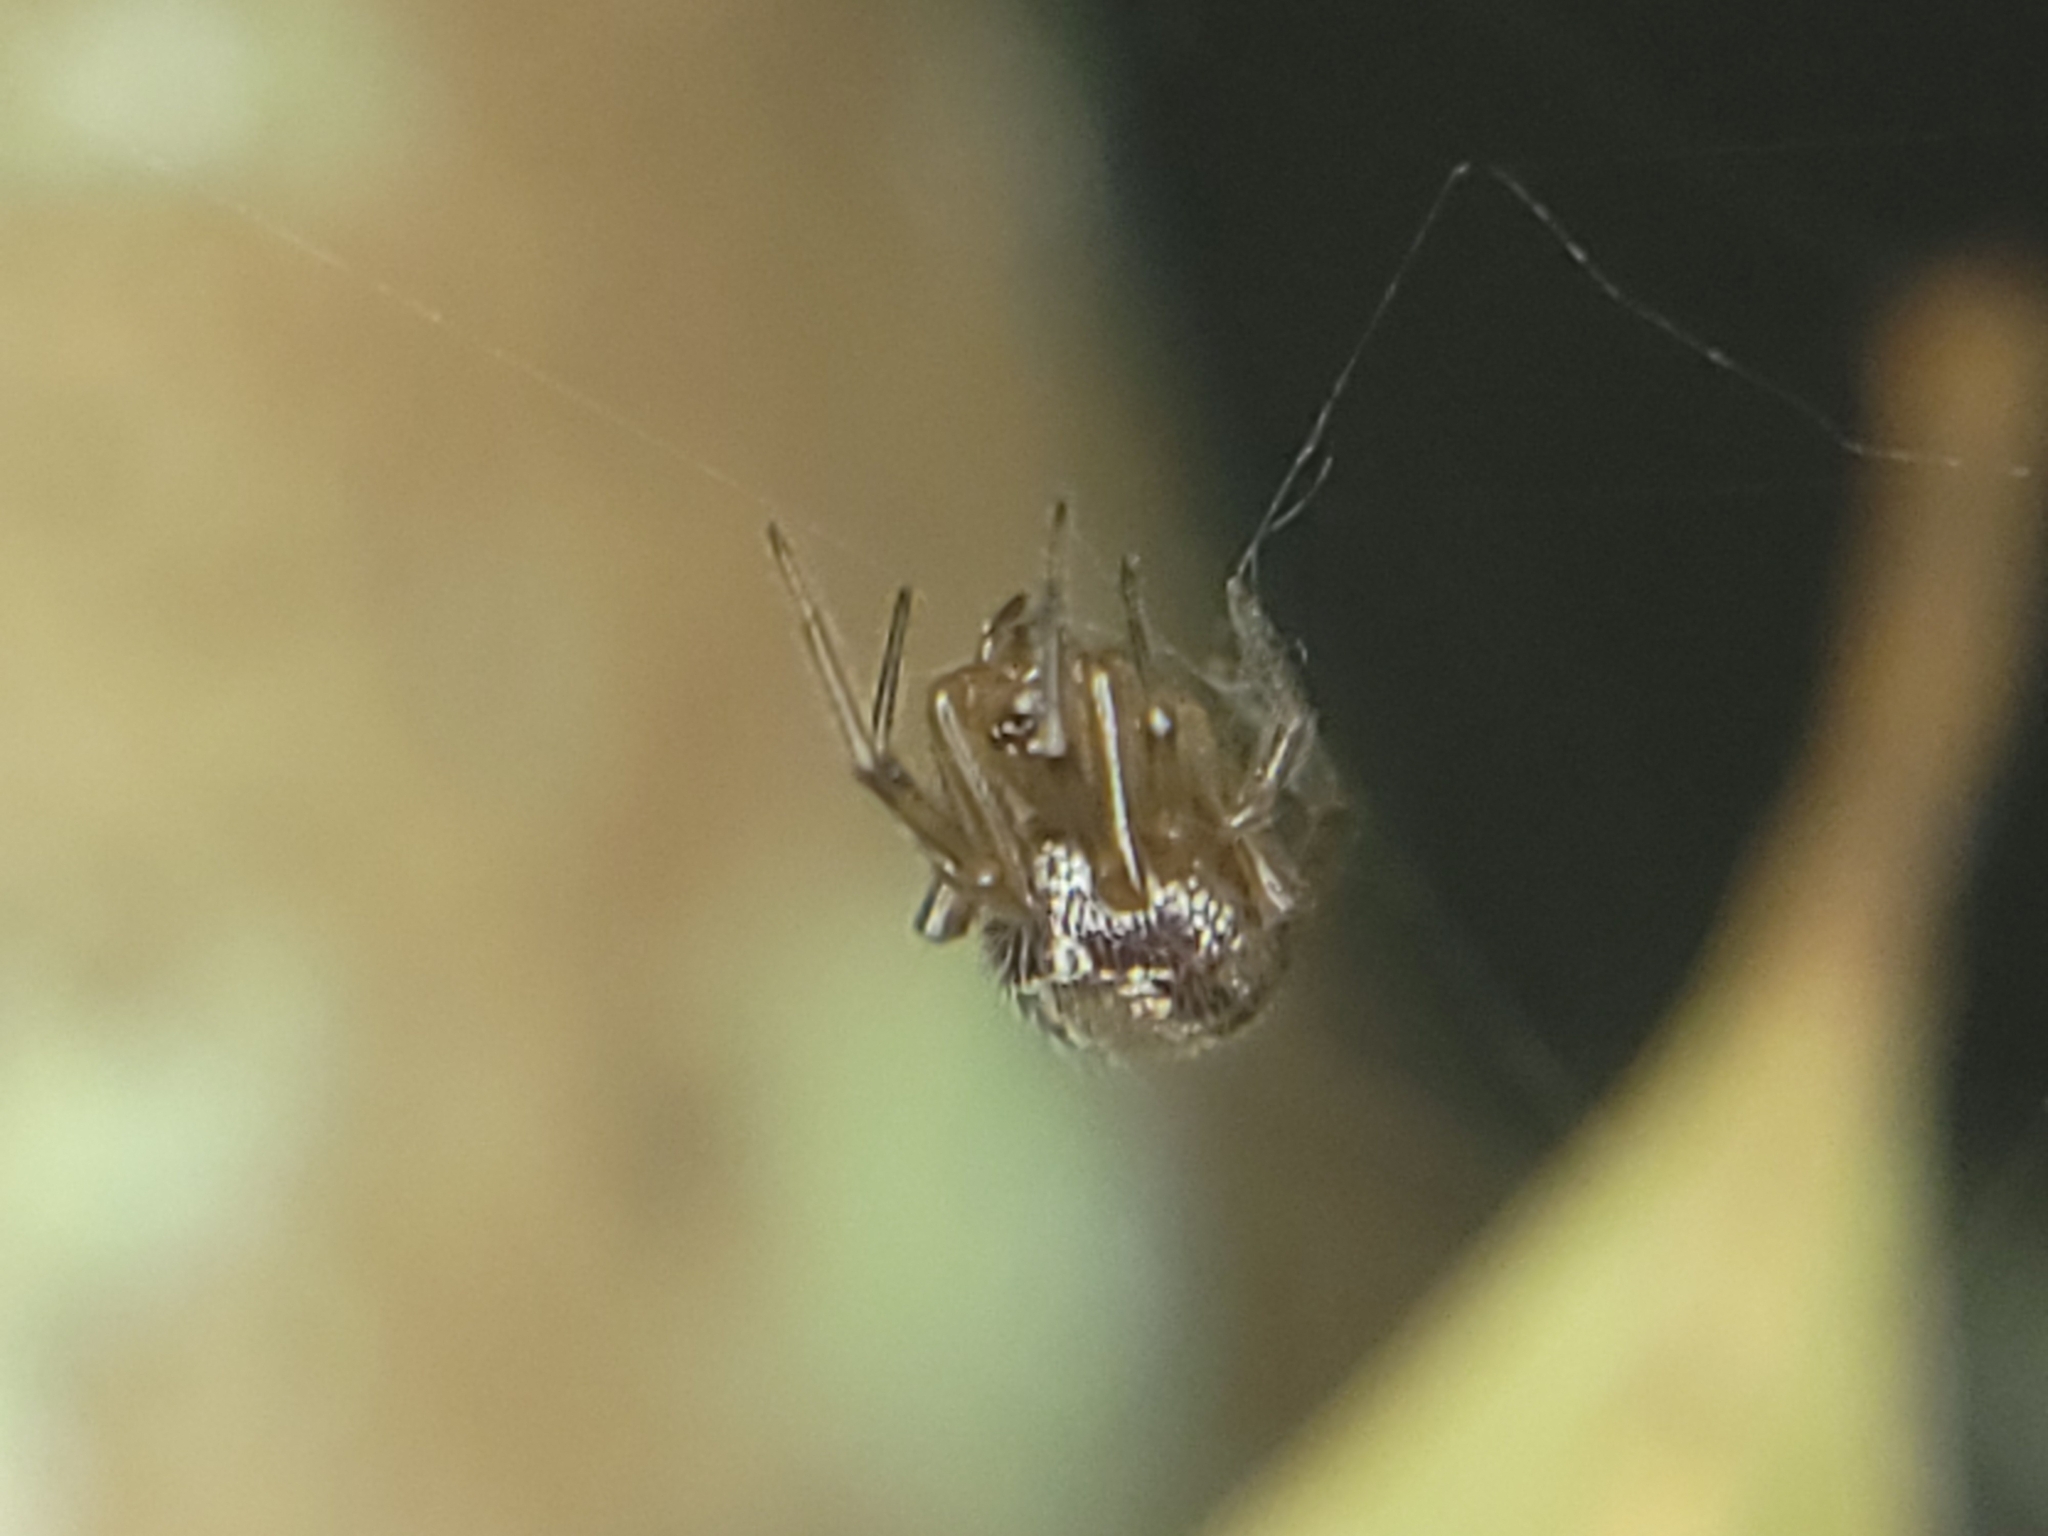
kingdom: Animalia
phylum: Arthropoda
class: Arachnida
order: Araneae
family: Theridiidae
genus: Steatoda
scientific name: Steatoda nobilis
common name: Cobweb weaver
